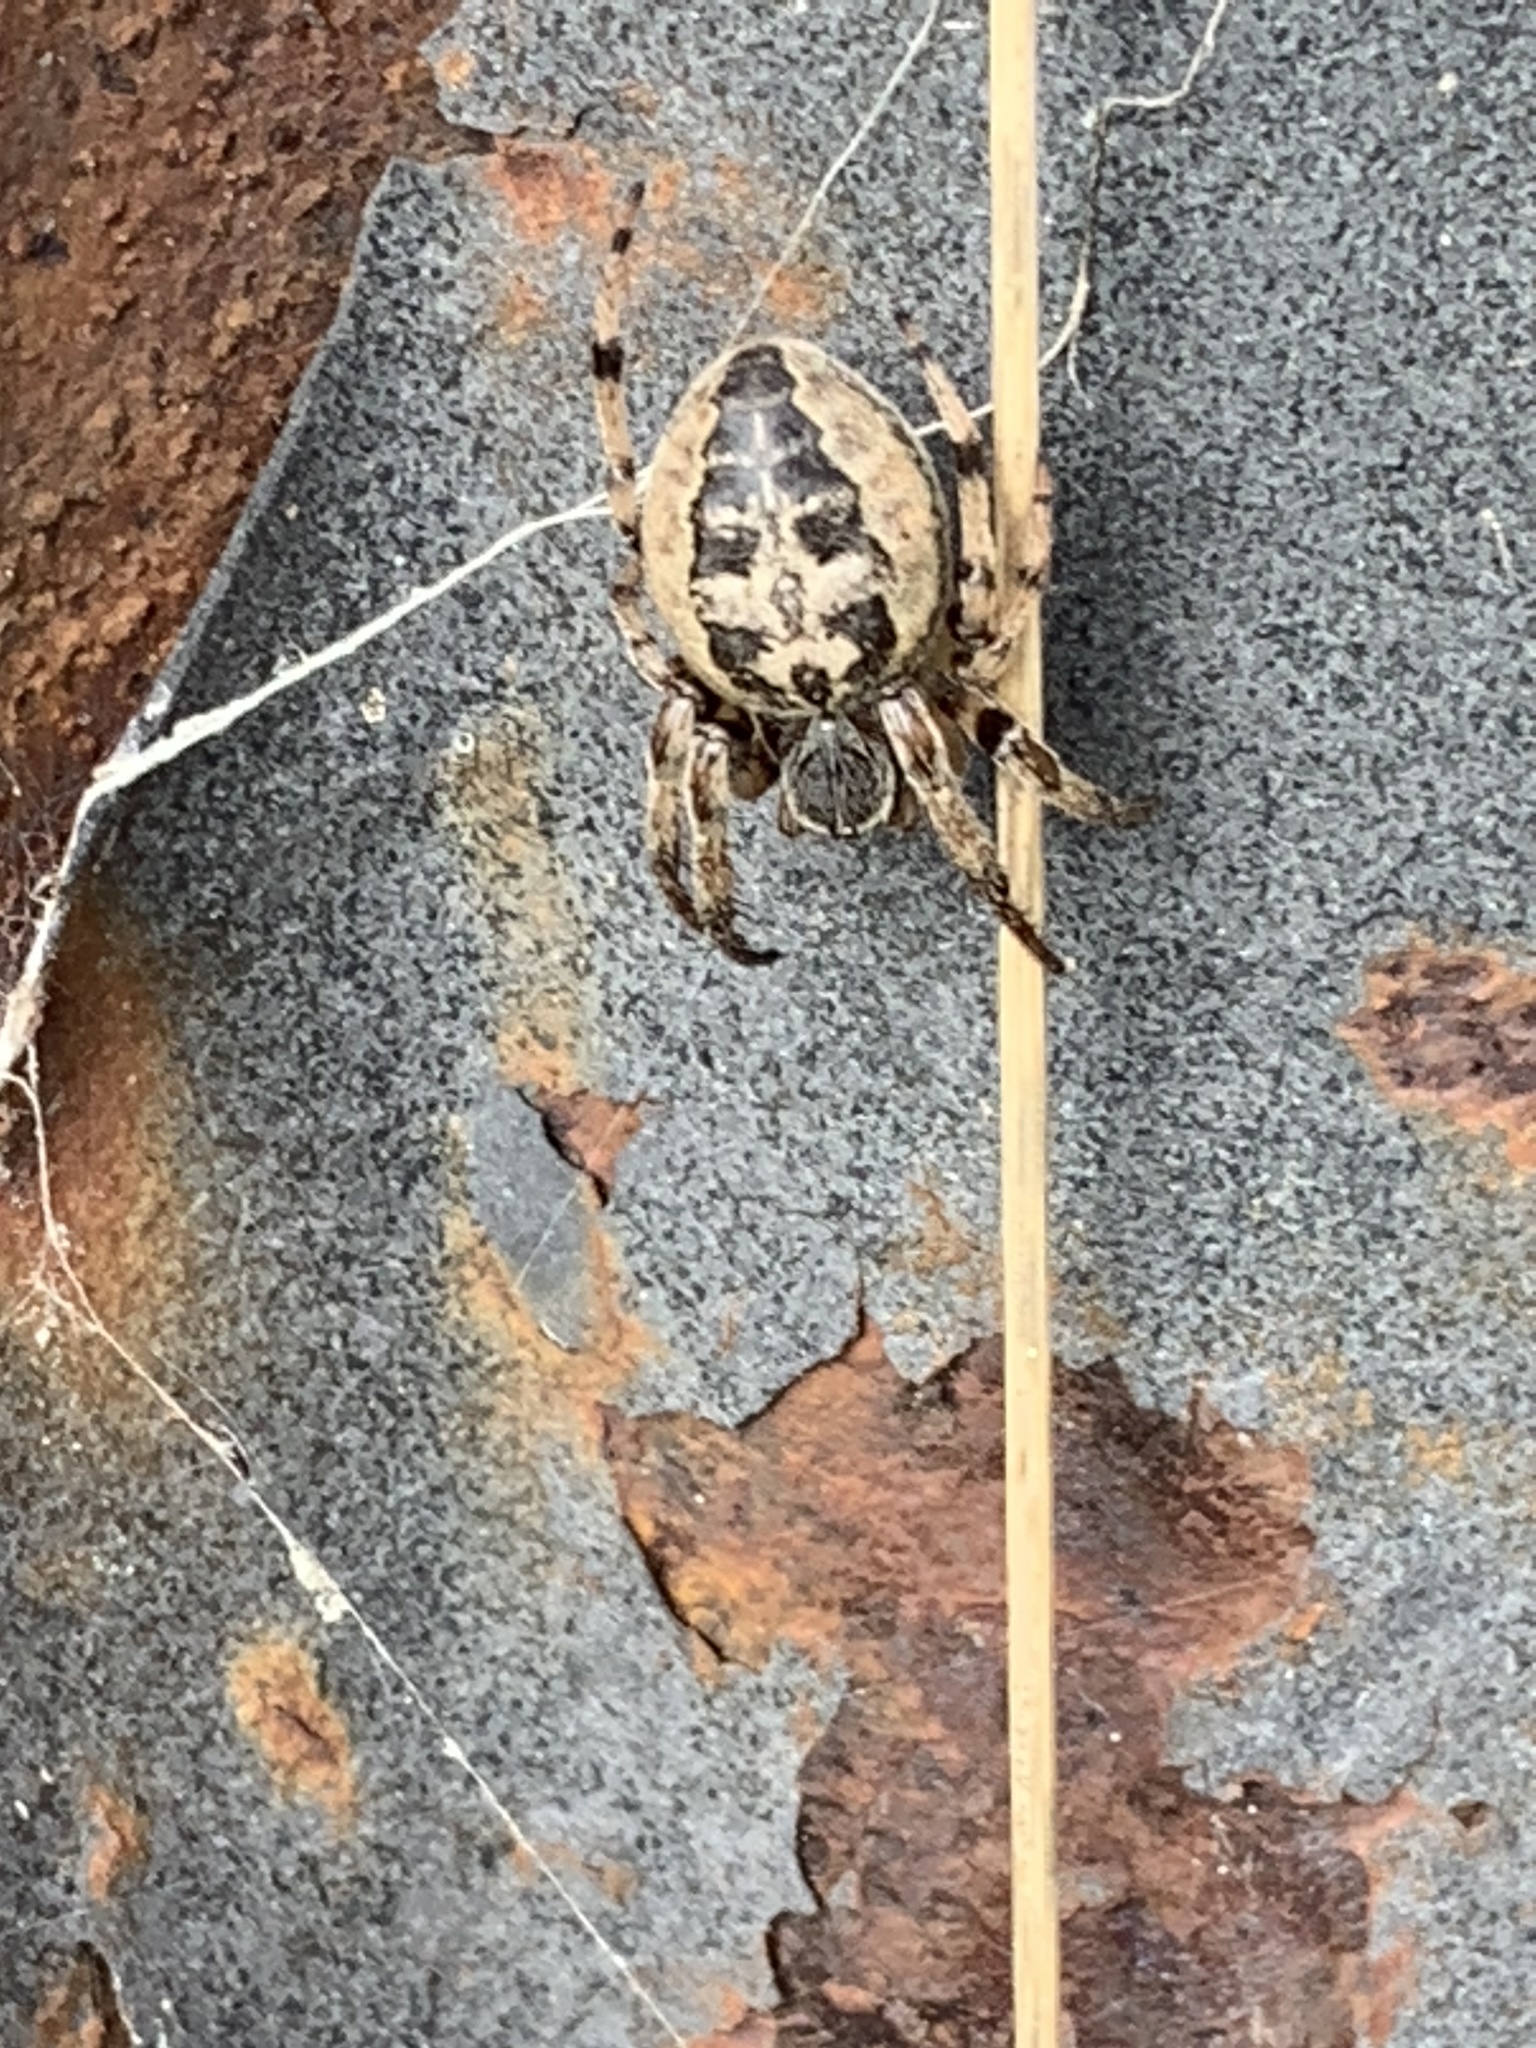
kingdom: Animalia
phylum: Arthropoda
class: Arachnida
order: Araneae
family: Araneidae
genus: Larinioides
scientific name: Larinioides cornutus
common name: Furrow orbweaver
